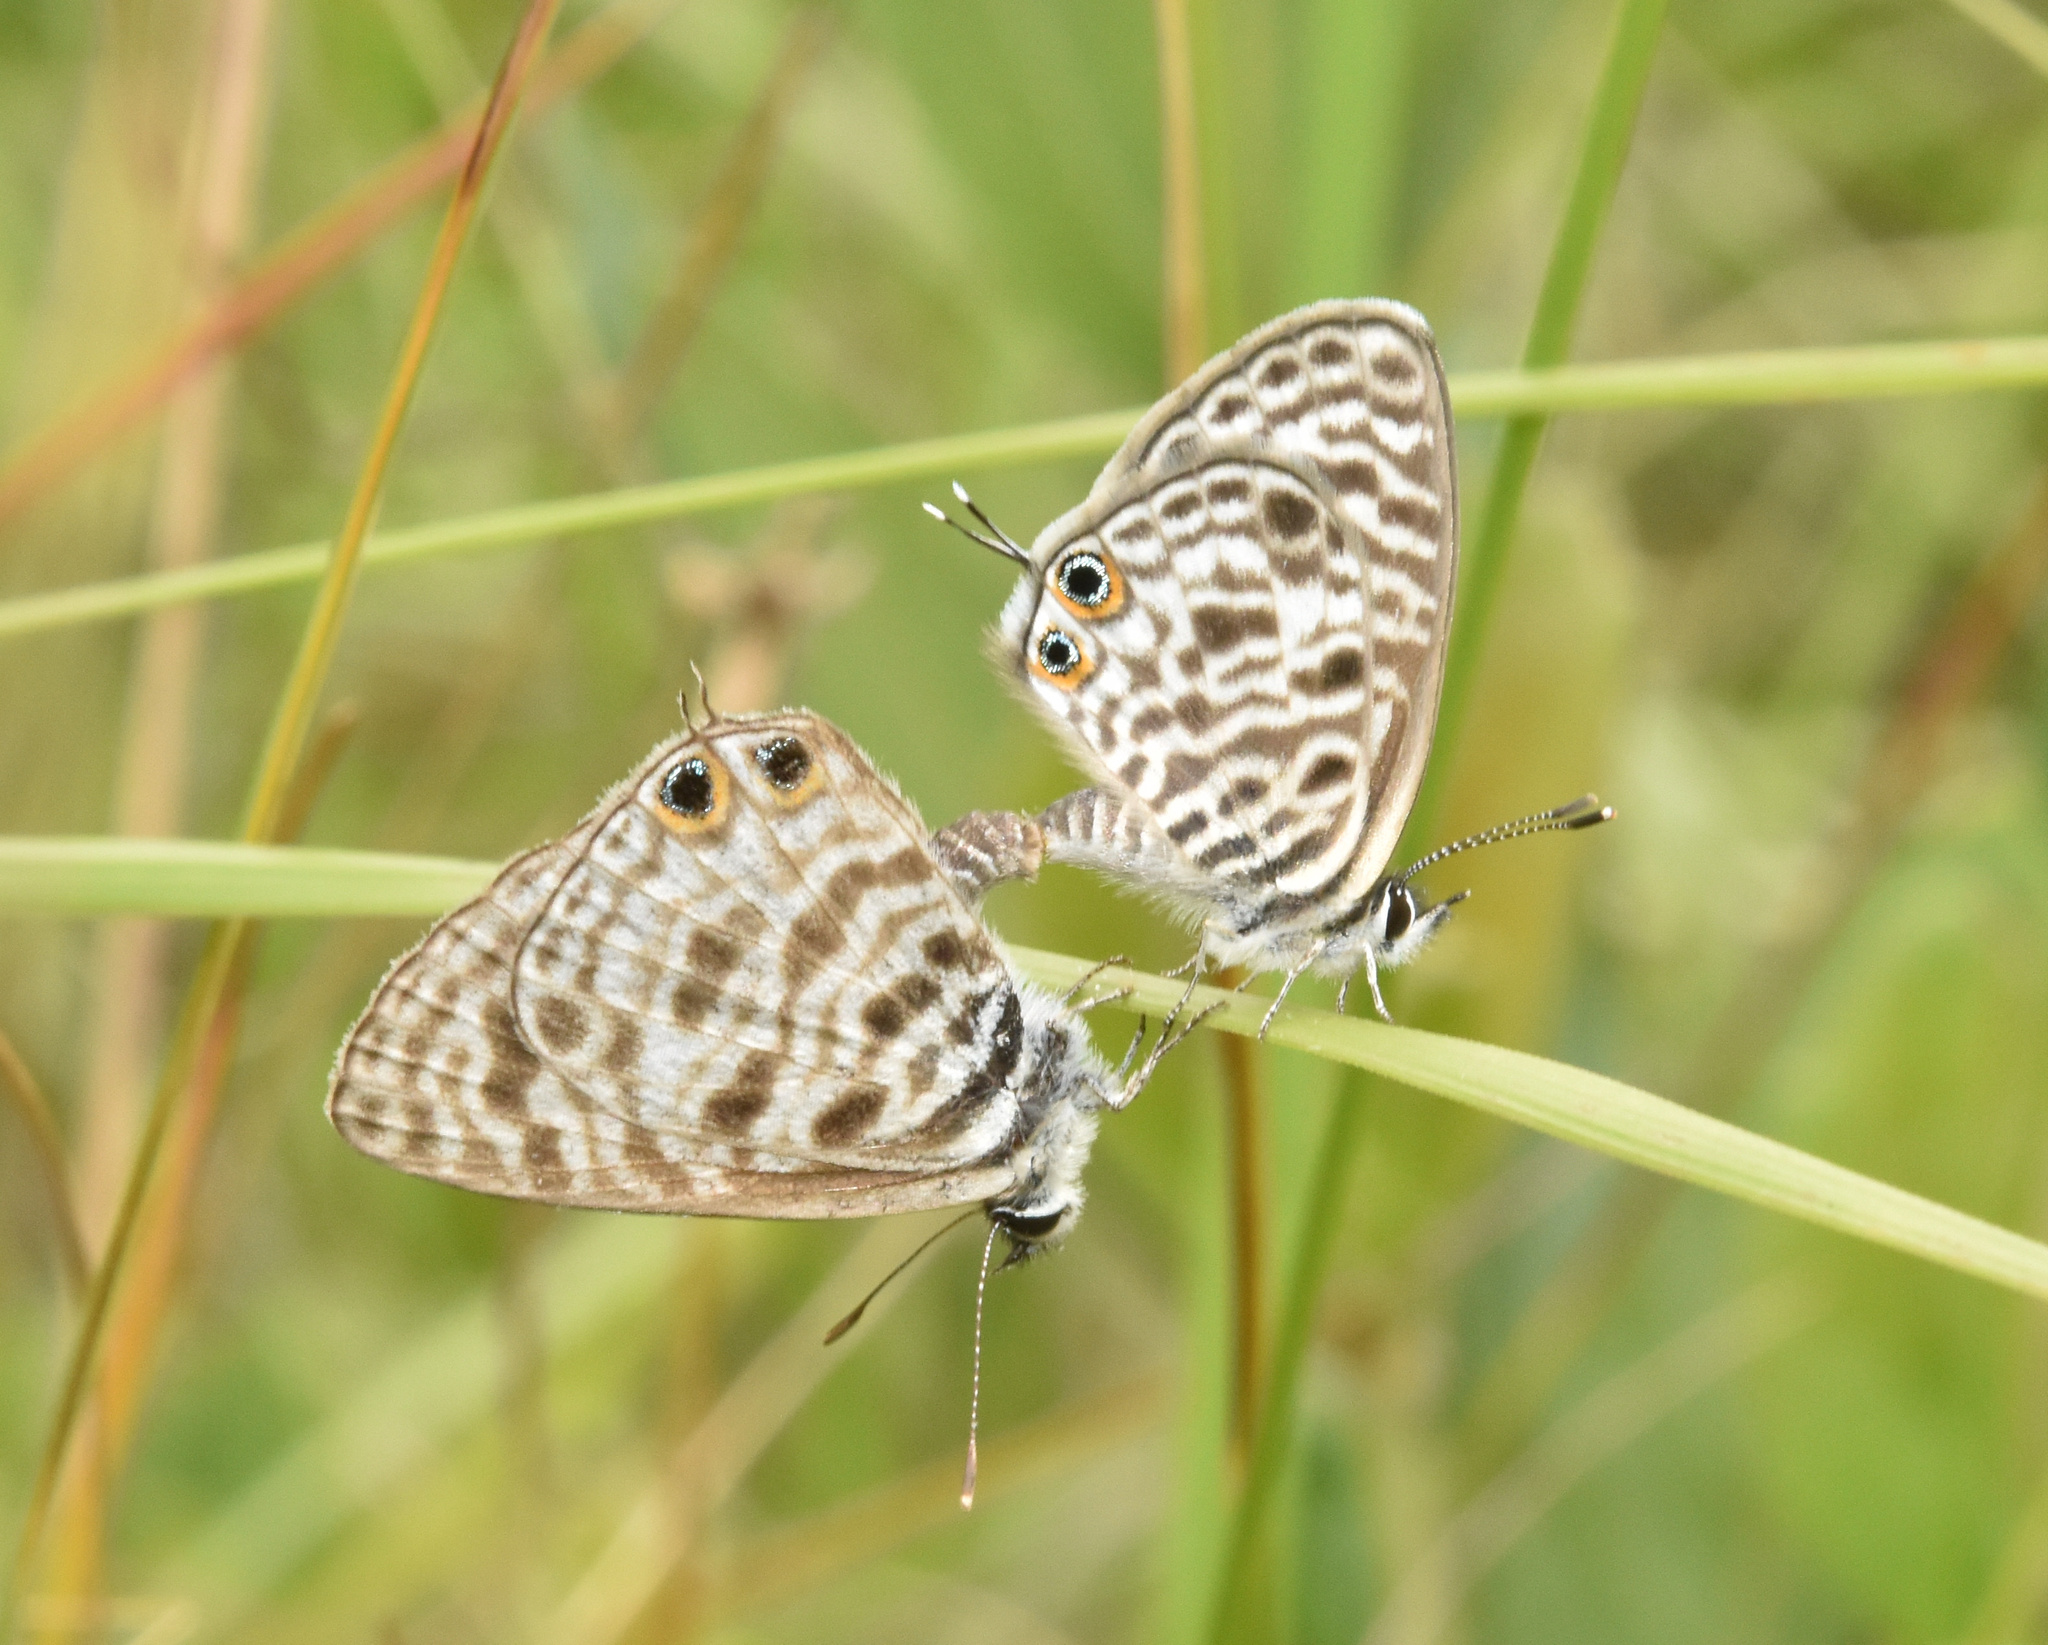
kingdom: Animalia
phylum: Arthropoda
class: Insecta
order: Lepidoptera
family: Lycaenidae
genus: Leptotes
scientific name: Leptotes
